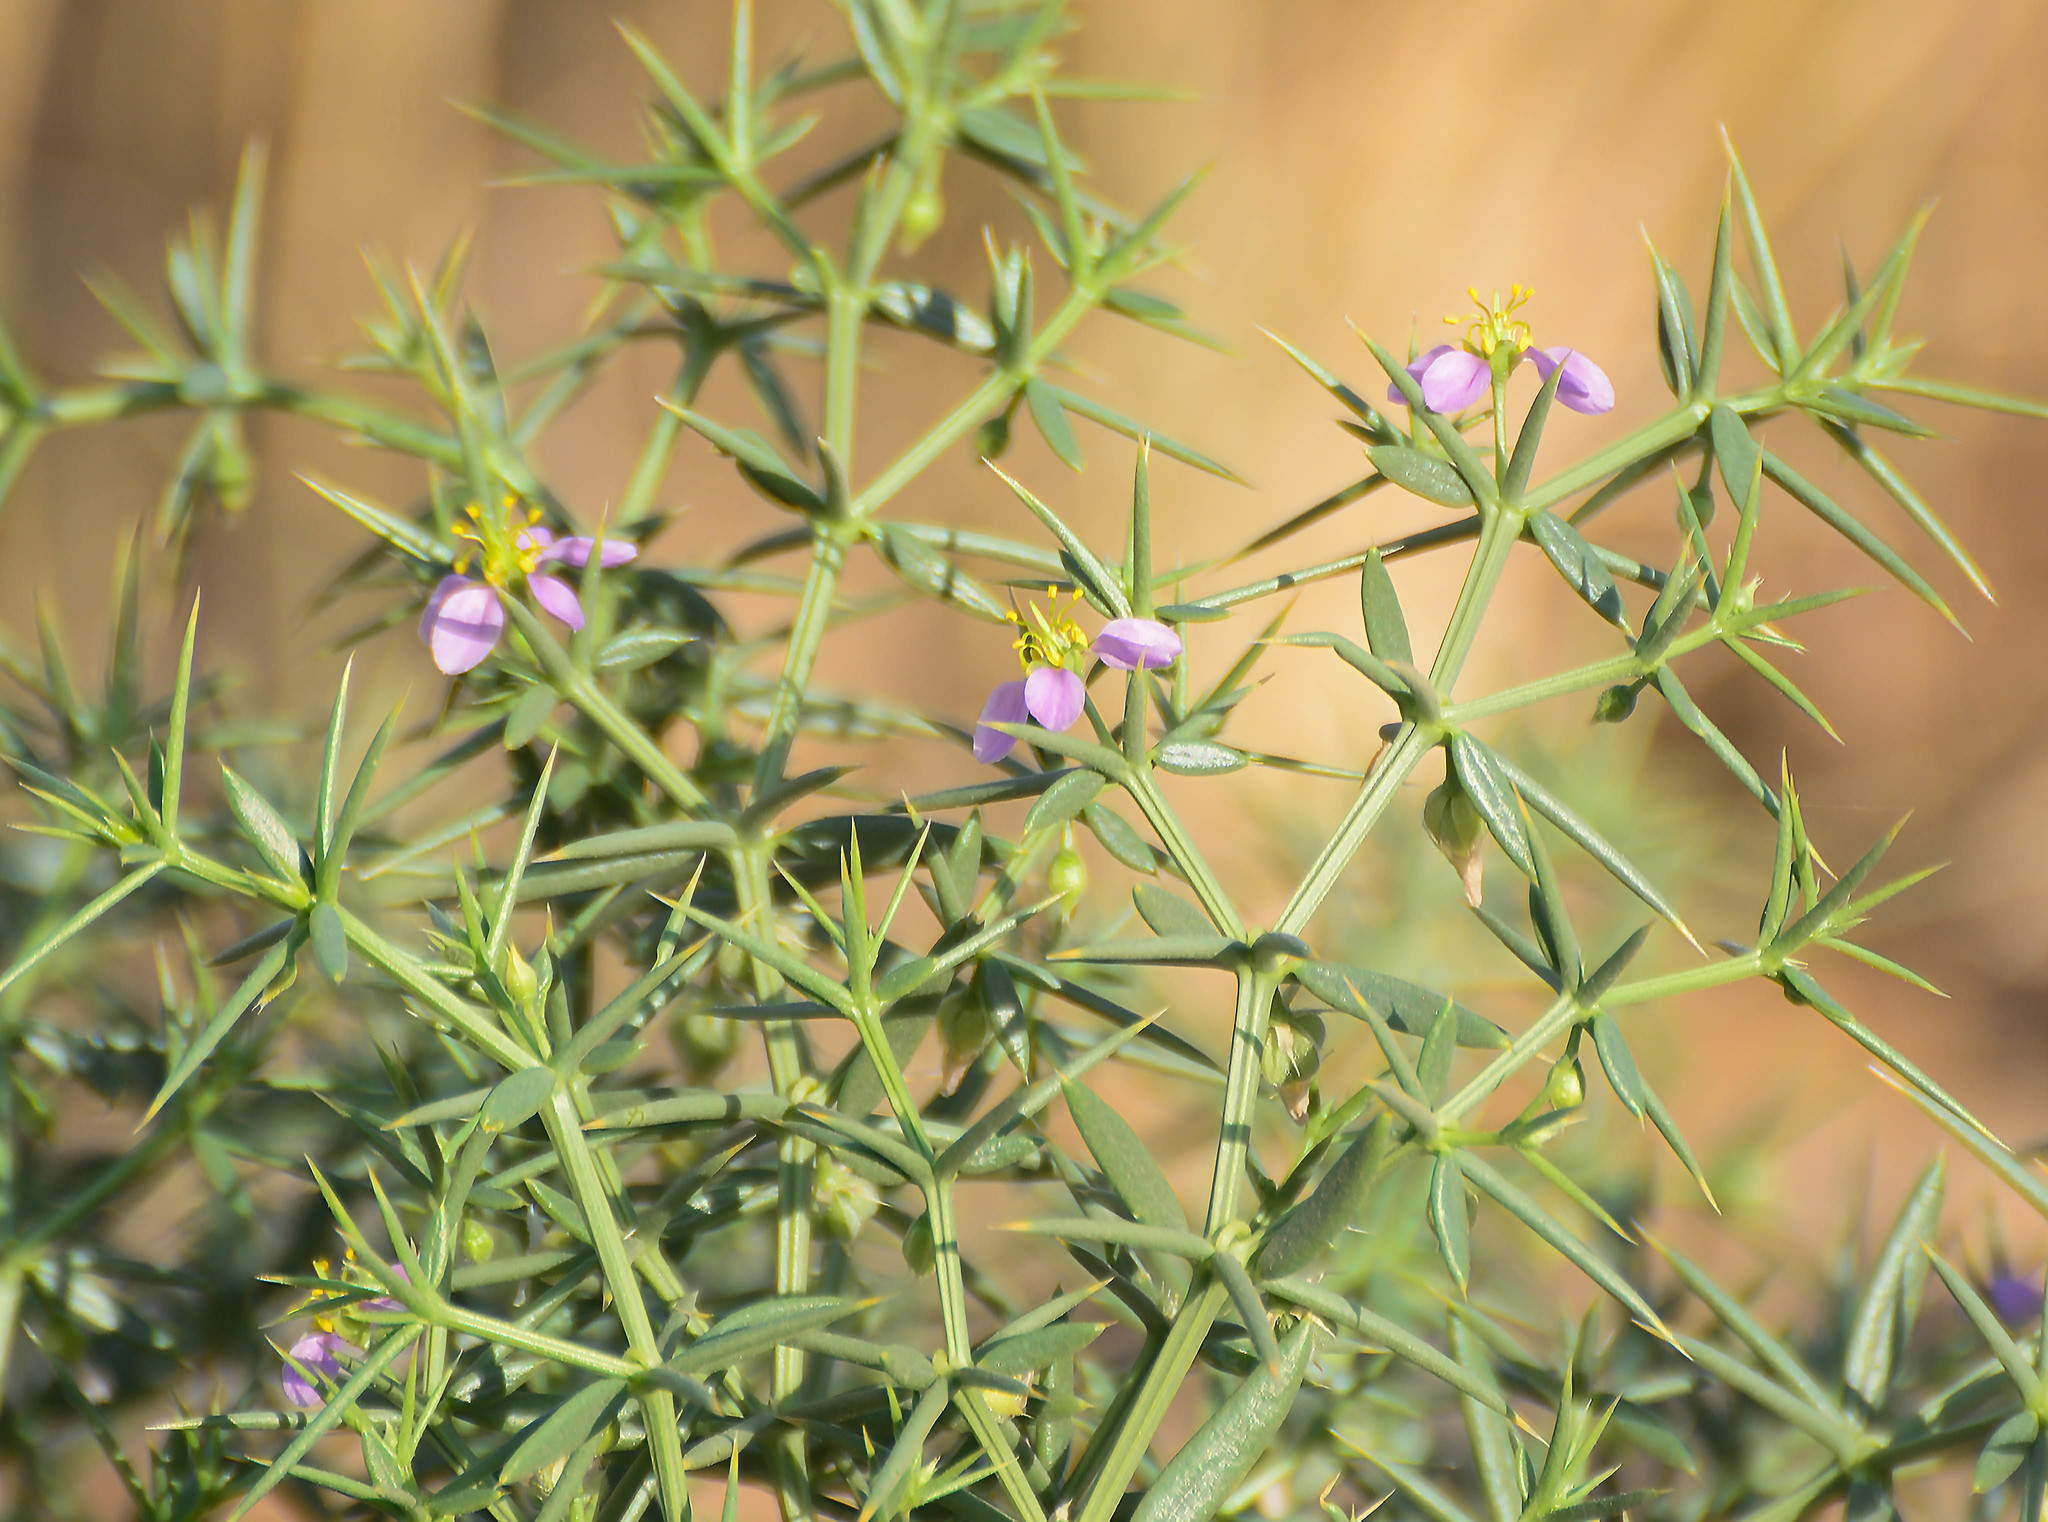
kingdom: Plantae
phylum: Tracheophyta
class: Magnoliopsida
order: Zygophyllales
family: Zygophyllaceae
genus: Fagonia
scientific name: Fagonia paulayana
